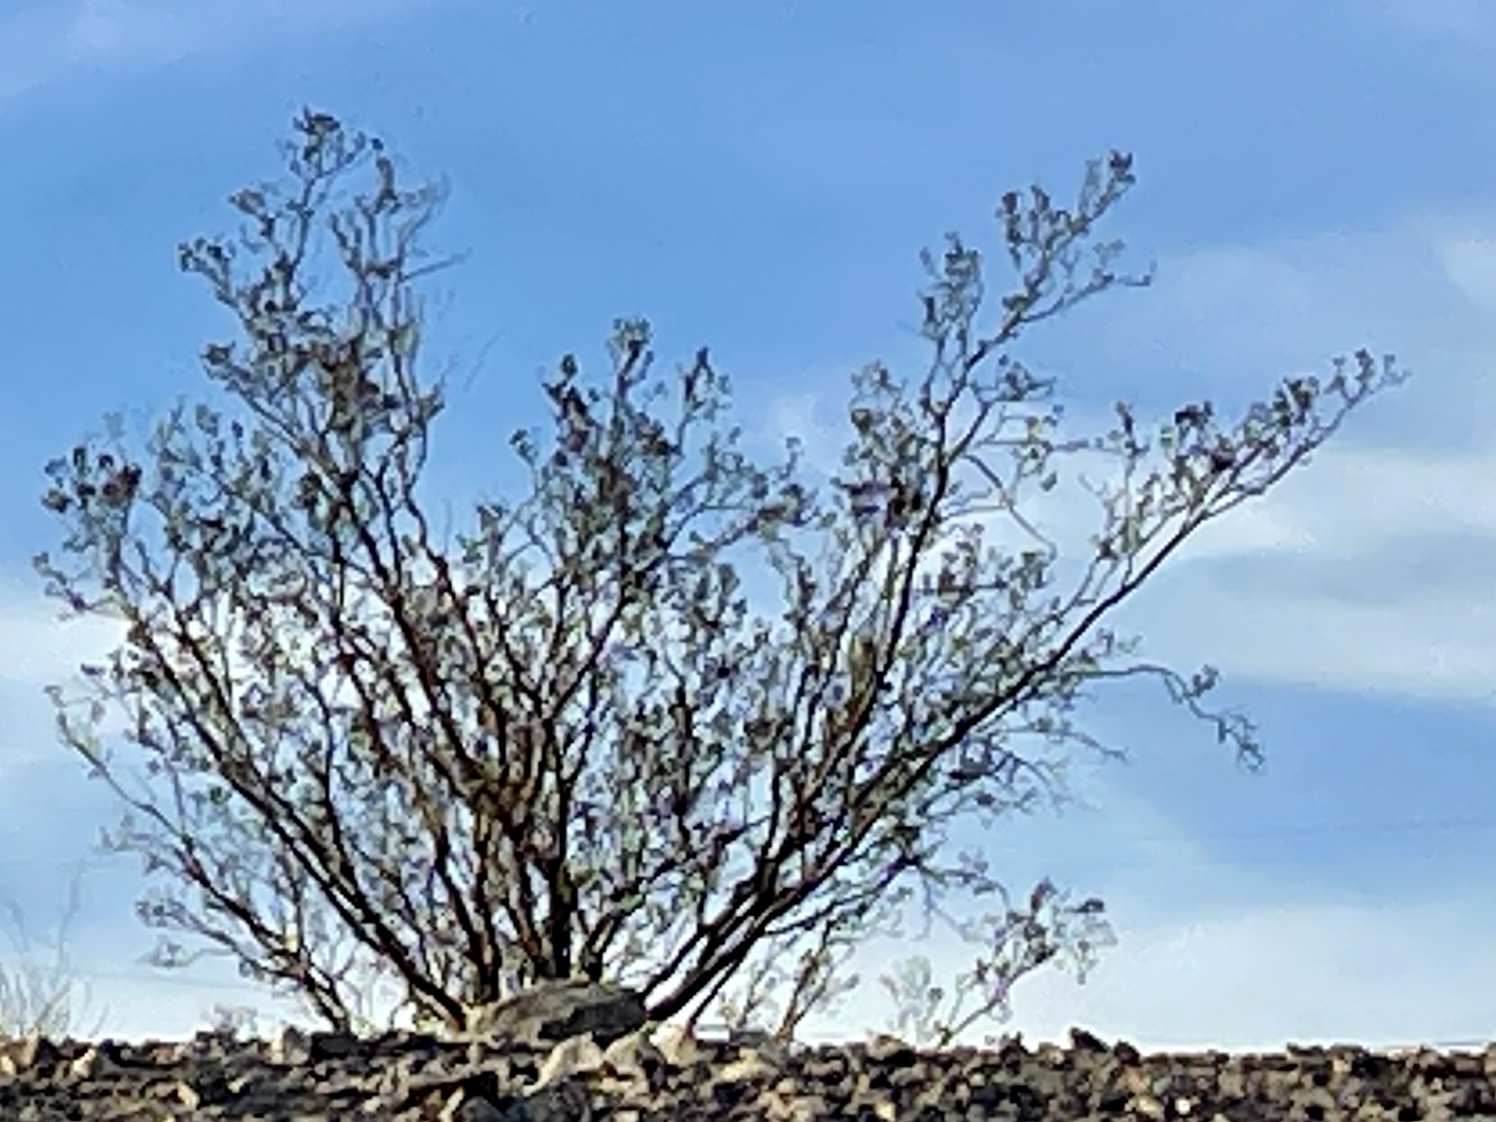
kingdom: Plantae
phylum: Tracheophyta
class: Magnoliopsida
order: Zygophyllales
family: Zygophyllaceae
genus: Larrea
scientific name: Larrea tridentata
